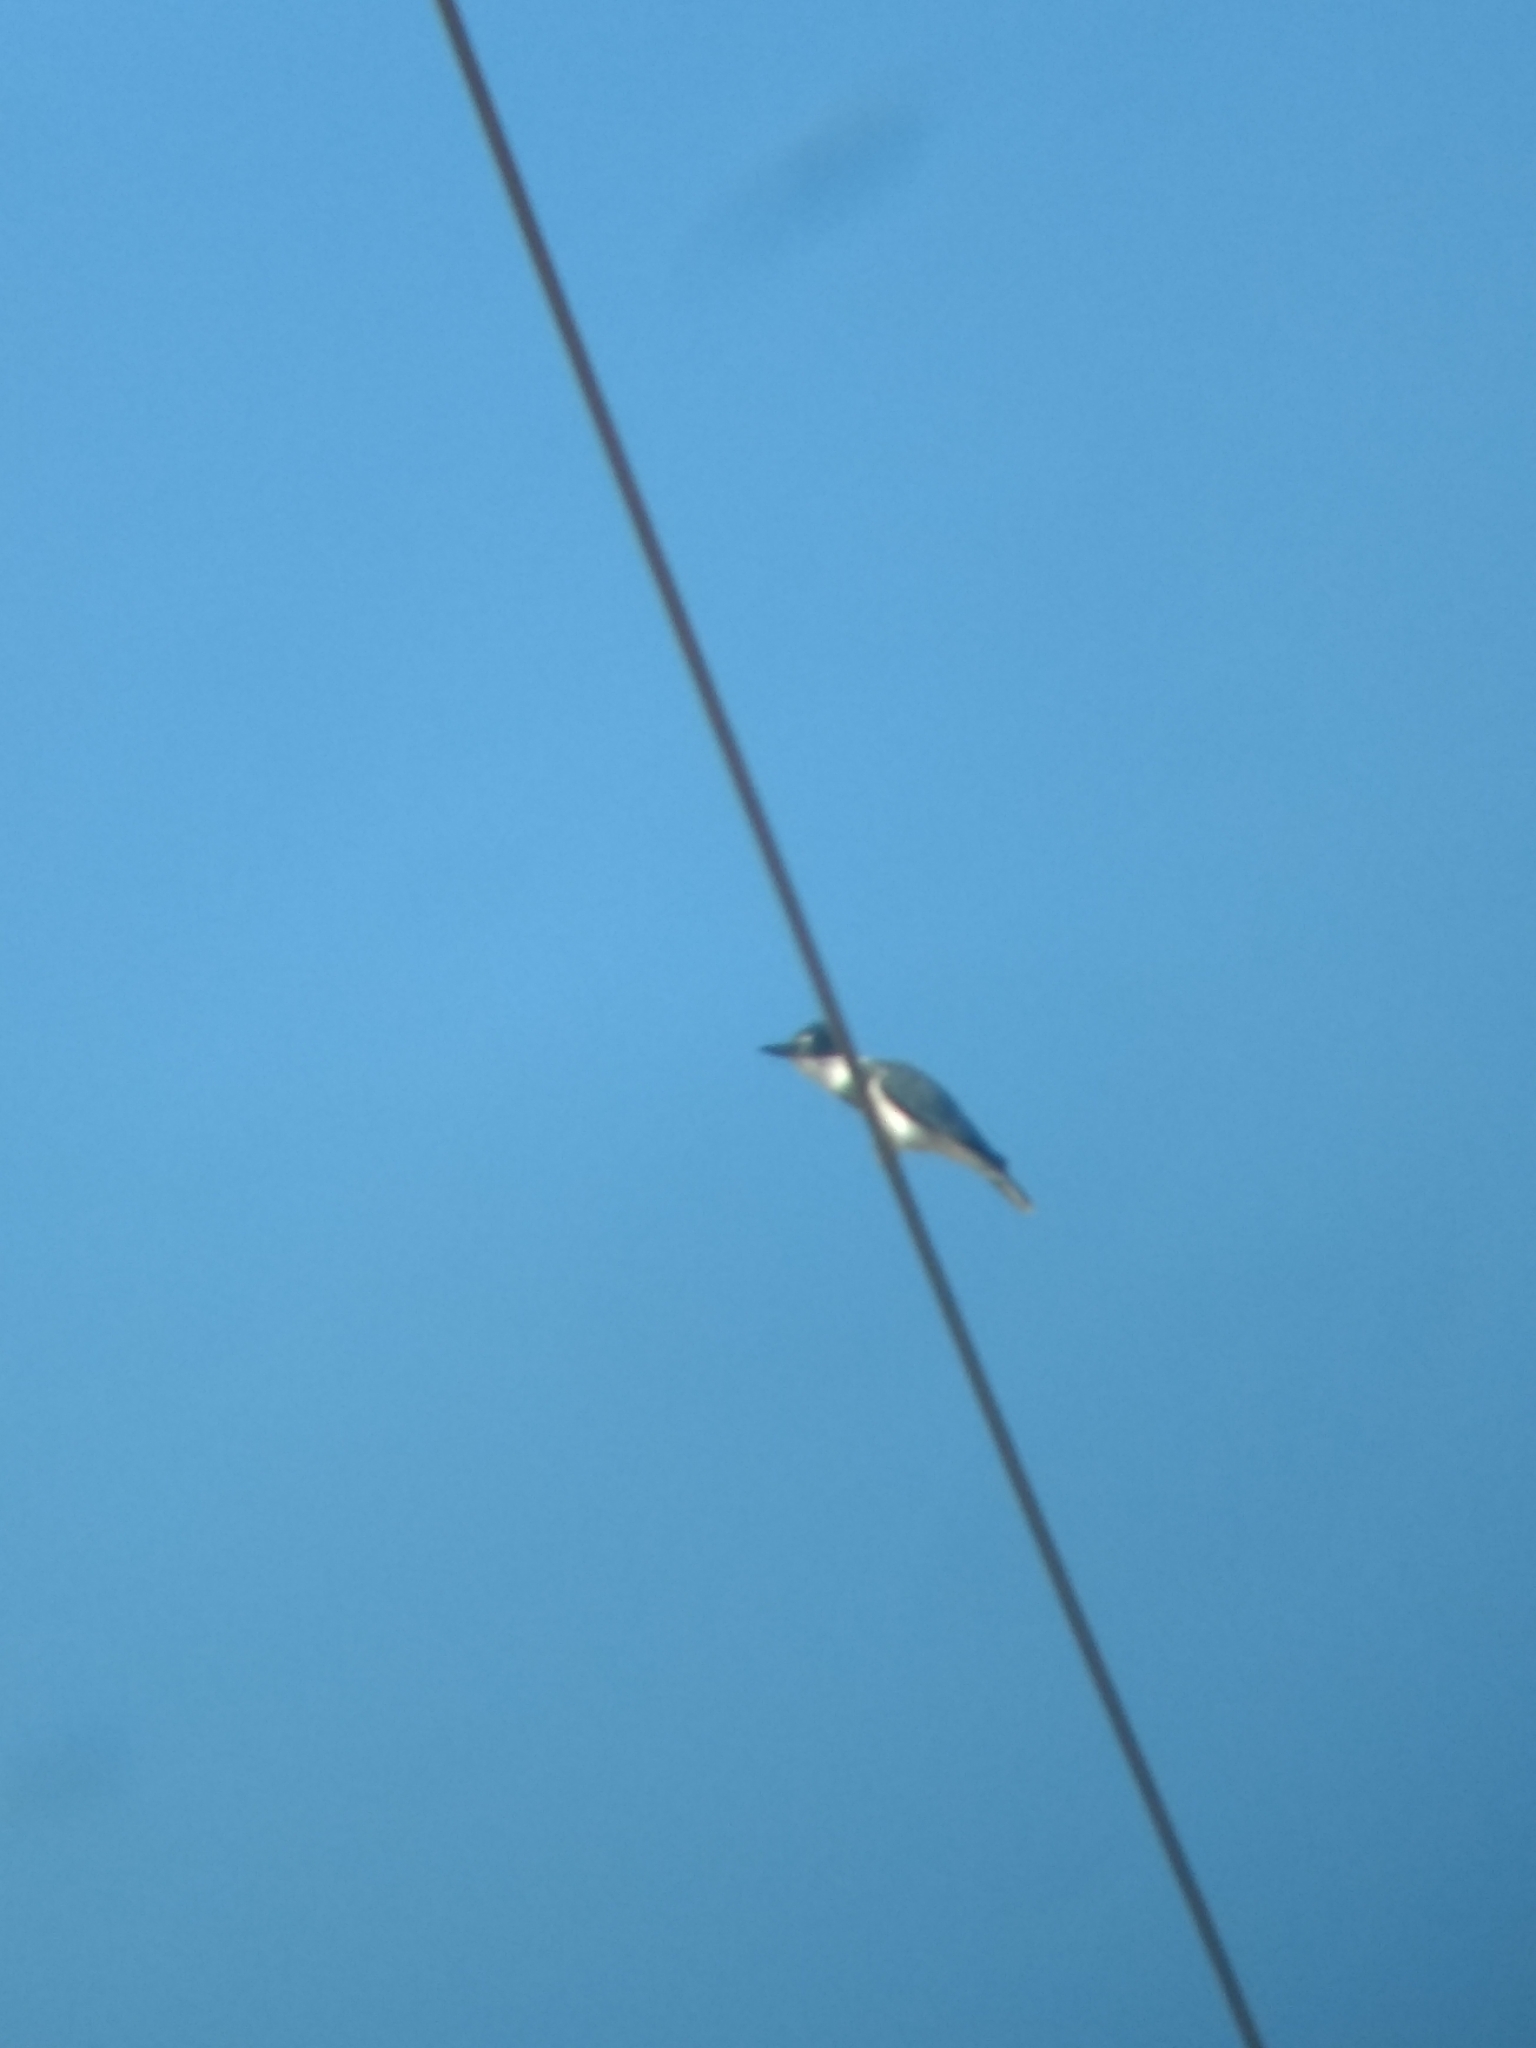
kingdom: Animalia
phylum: Chordata
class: Aves
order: Coraciiformes
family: Alcedinidae
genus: Megaceryle
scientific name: Megaceryle alcyon
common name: Belted kingfisher
